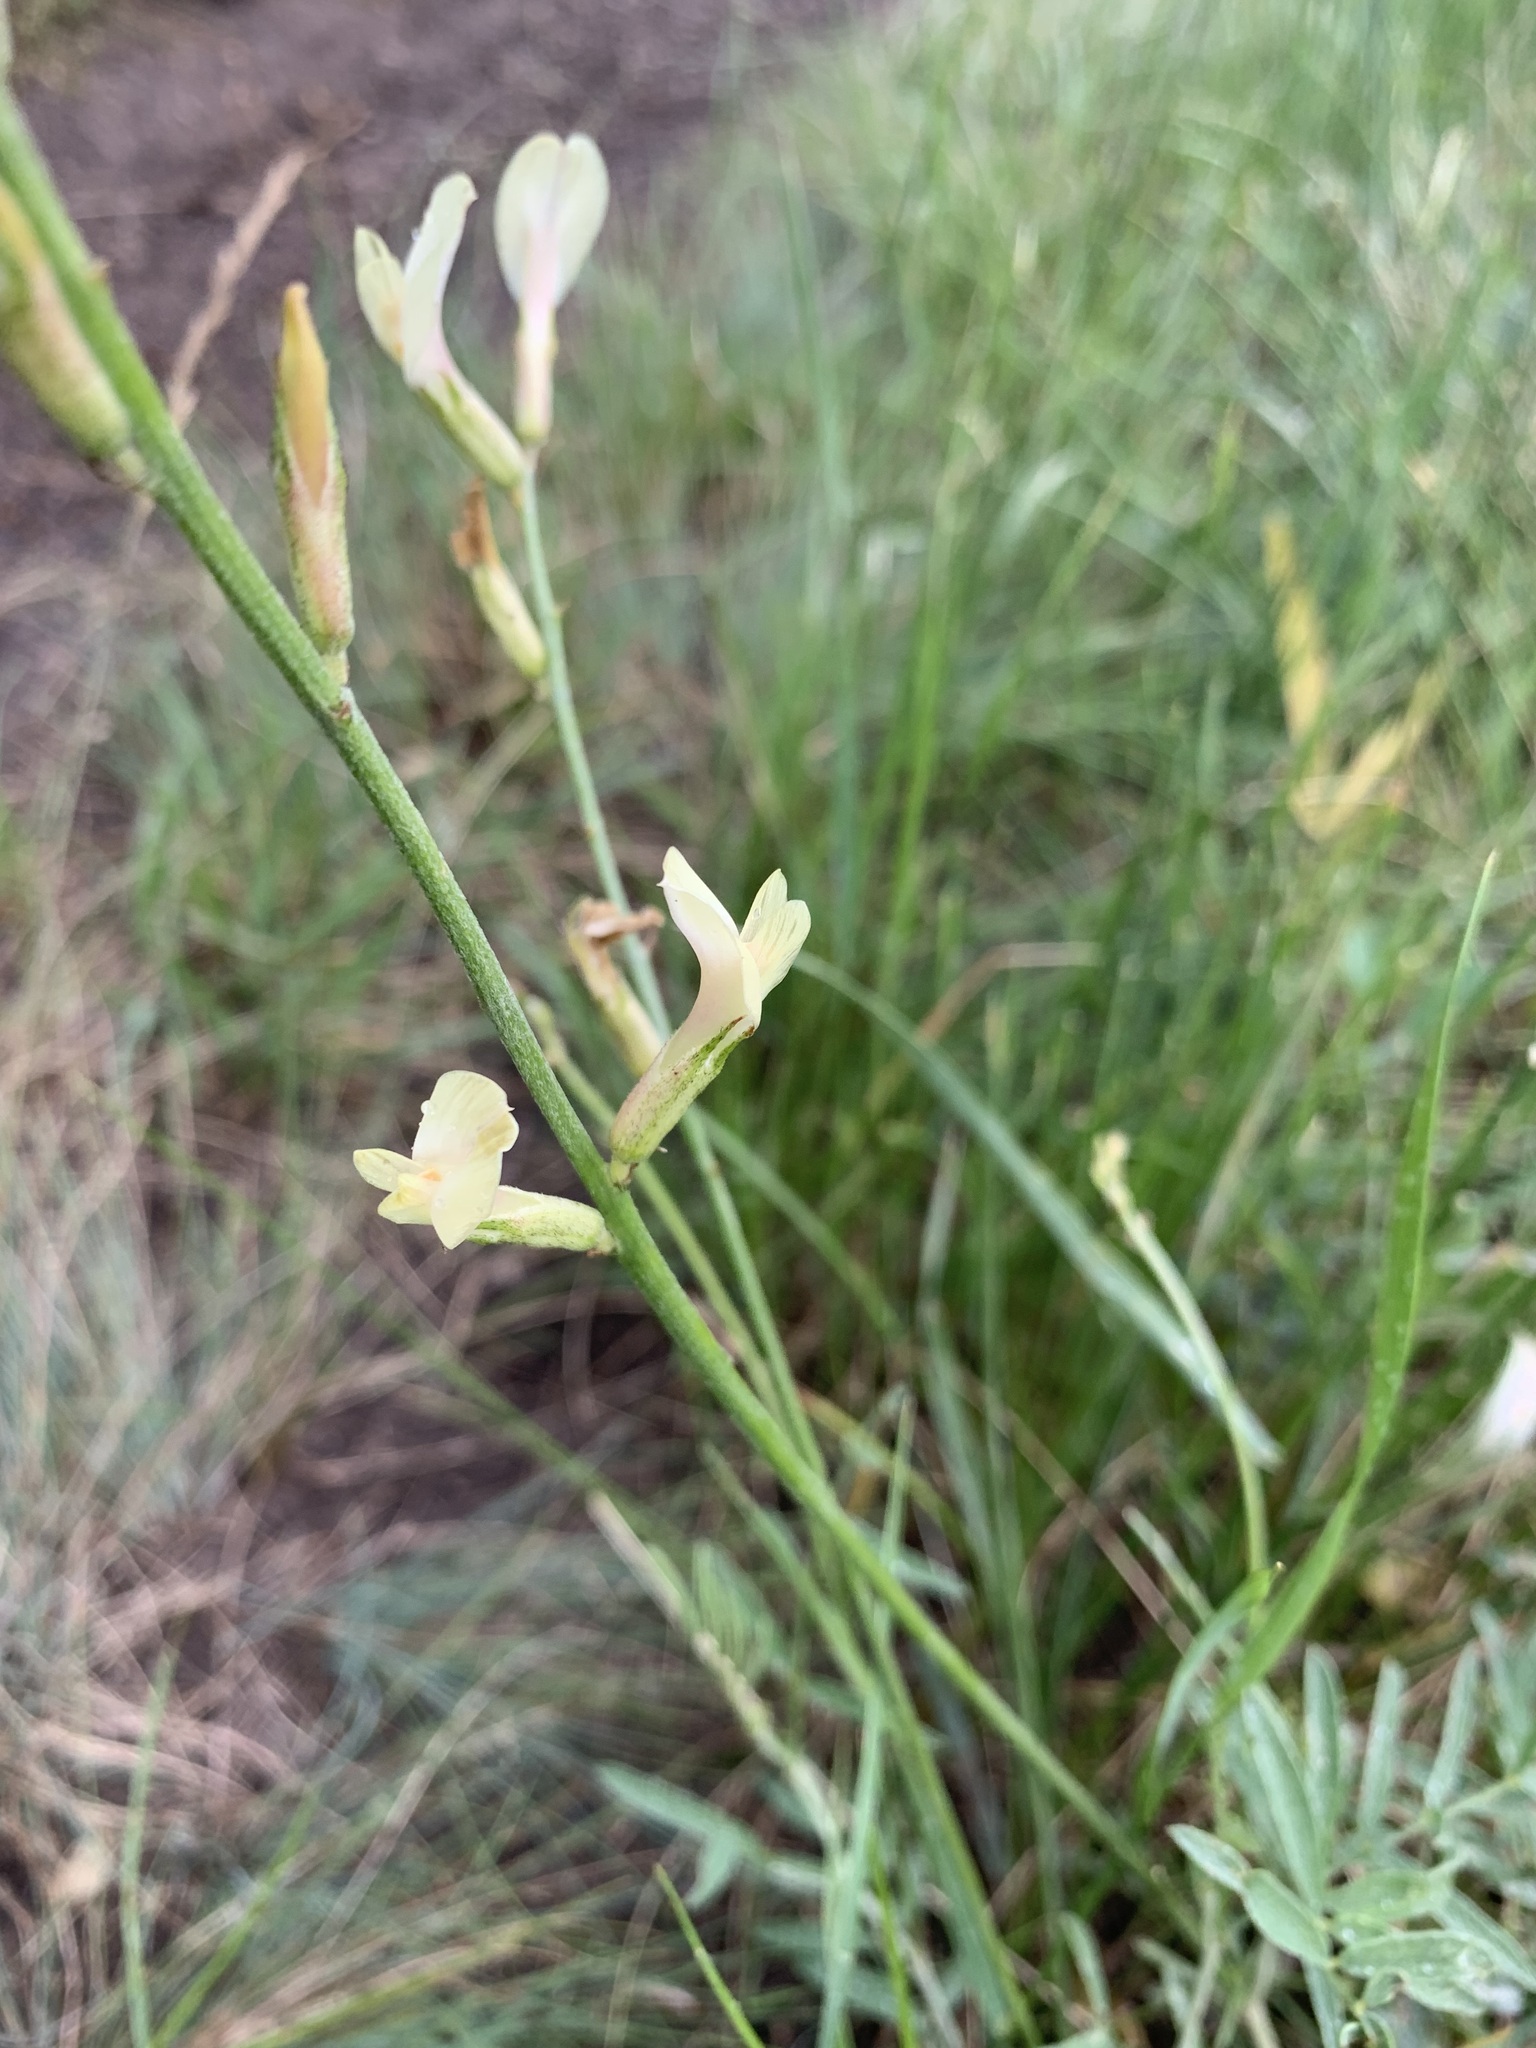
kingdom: Plantae
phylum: Tracheophyta
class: Magnoliopsida
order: Fabales
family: Fabaceae
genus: Astragalus
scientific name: Astragalus storozhevae
